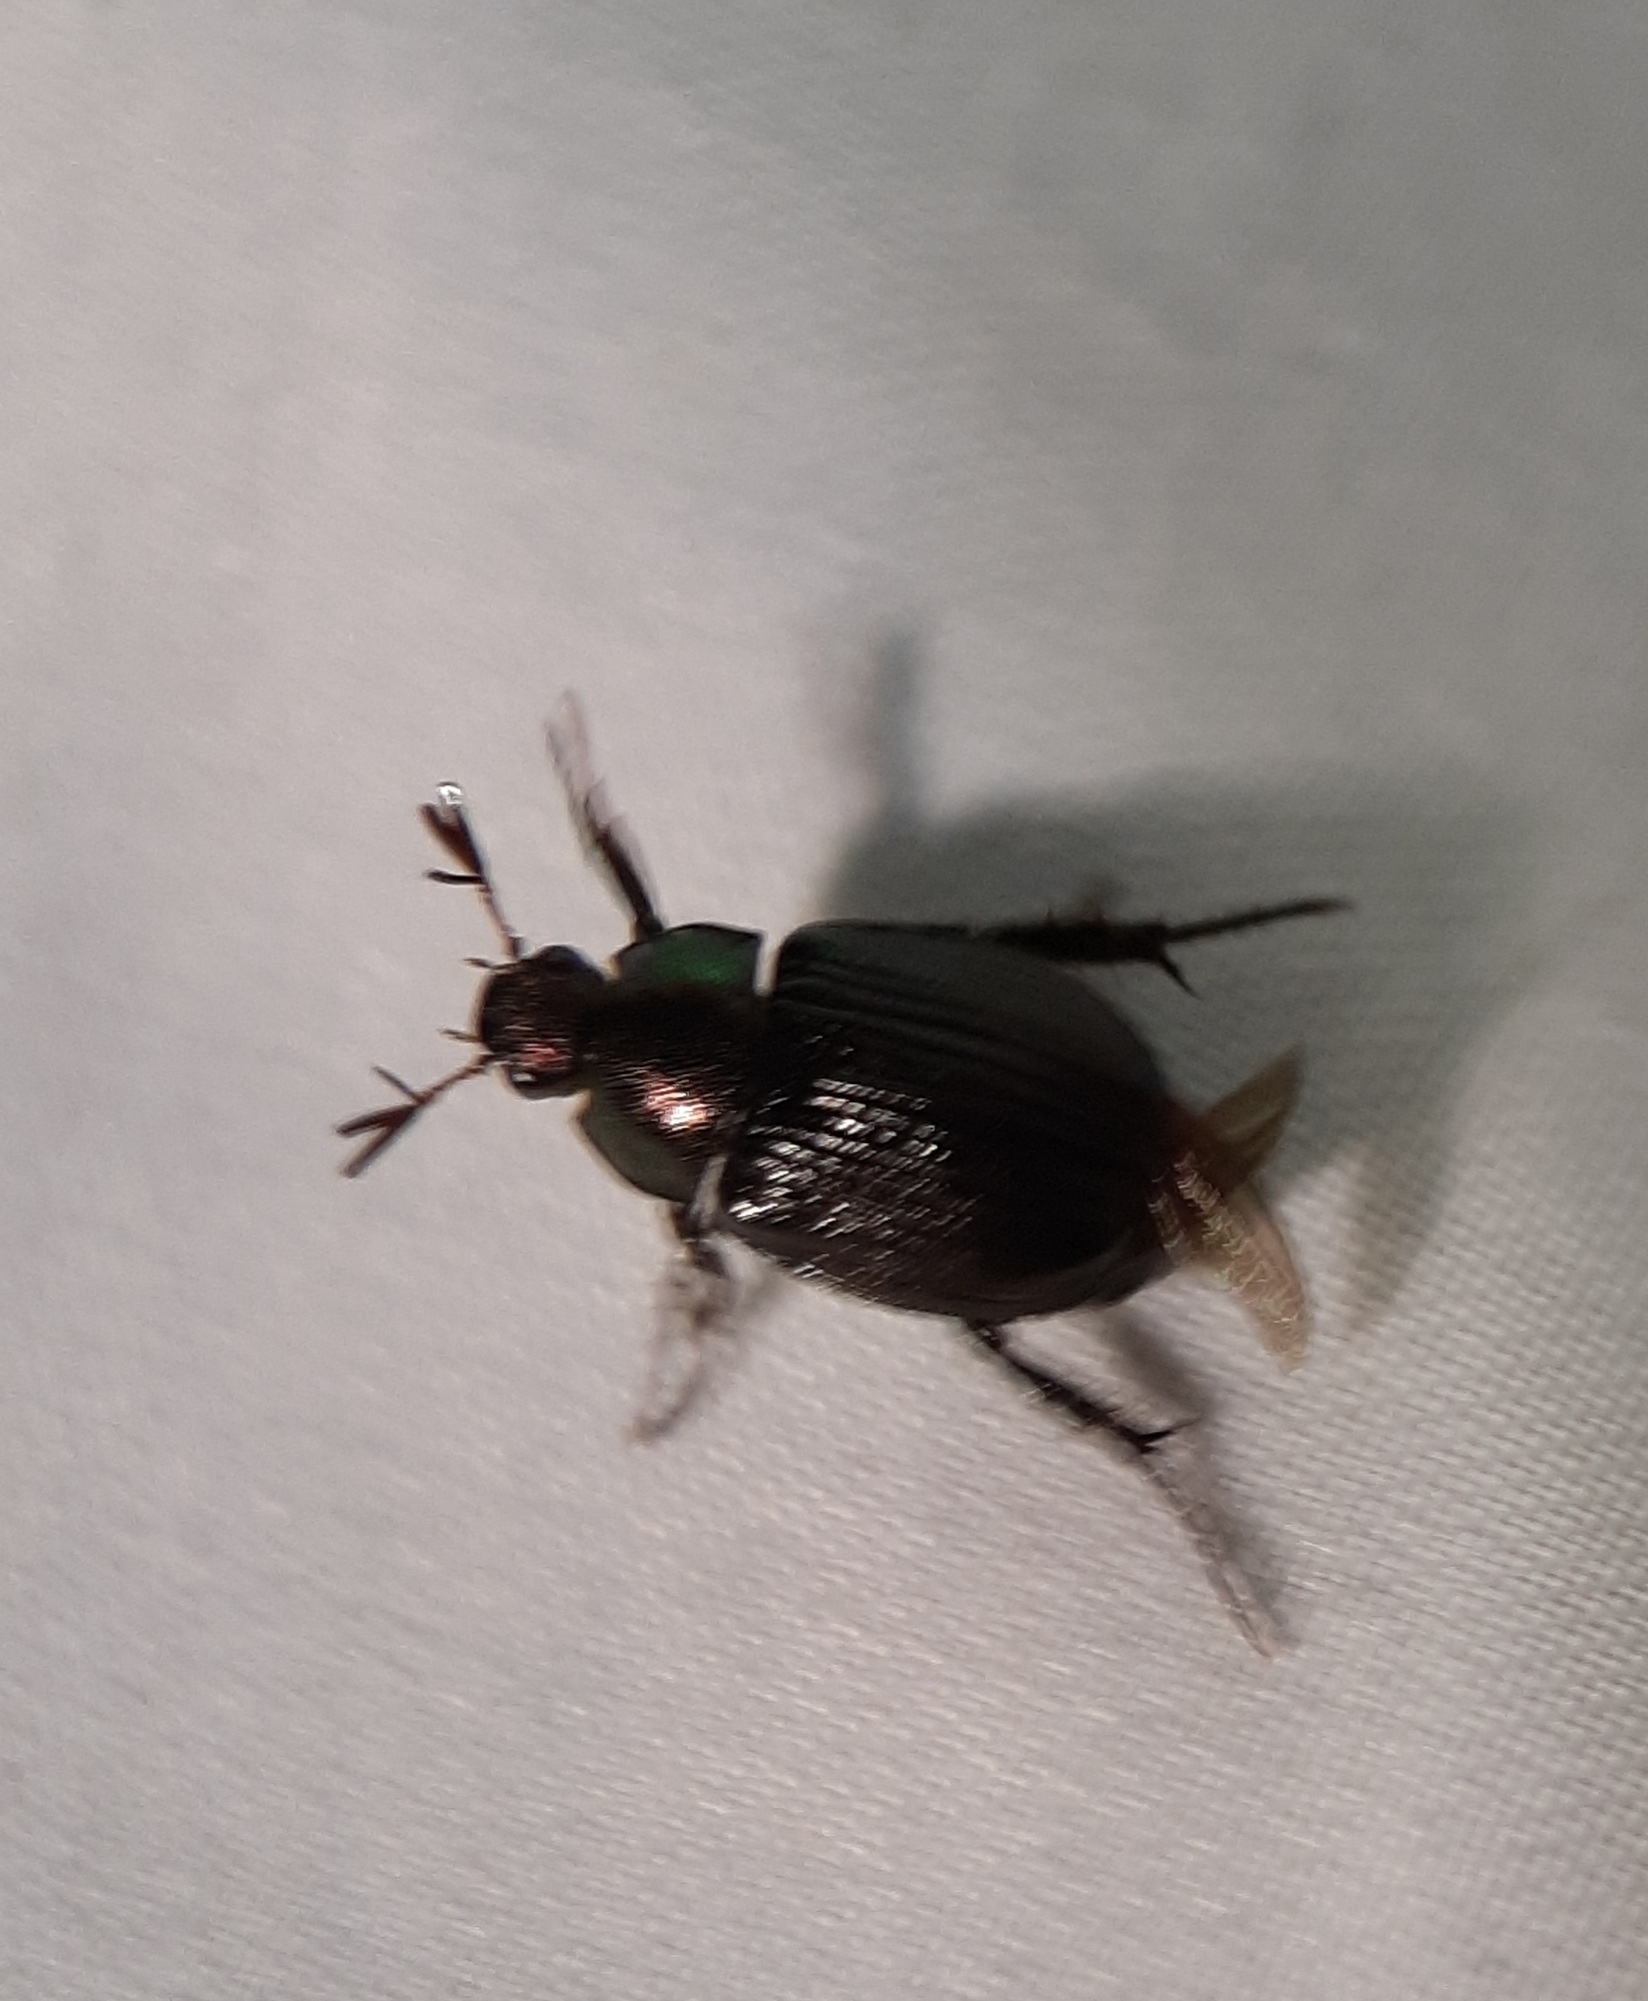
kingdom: Animalia
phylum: Arthropoda
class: Insecta
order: Coleoptera
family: Scarabaeidae
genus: Exomala
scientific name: Exomala orientalis
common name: Oriental beetle
